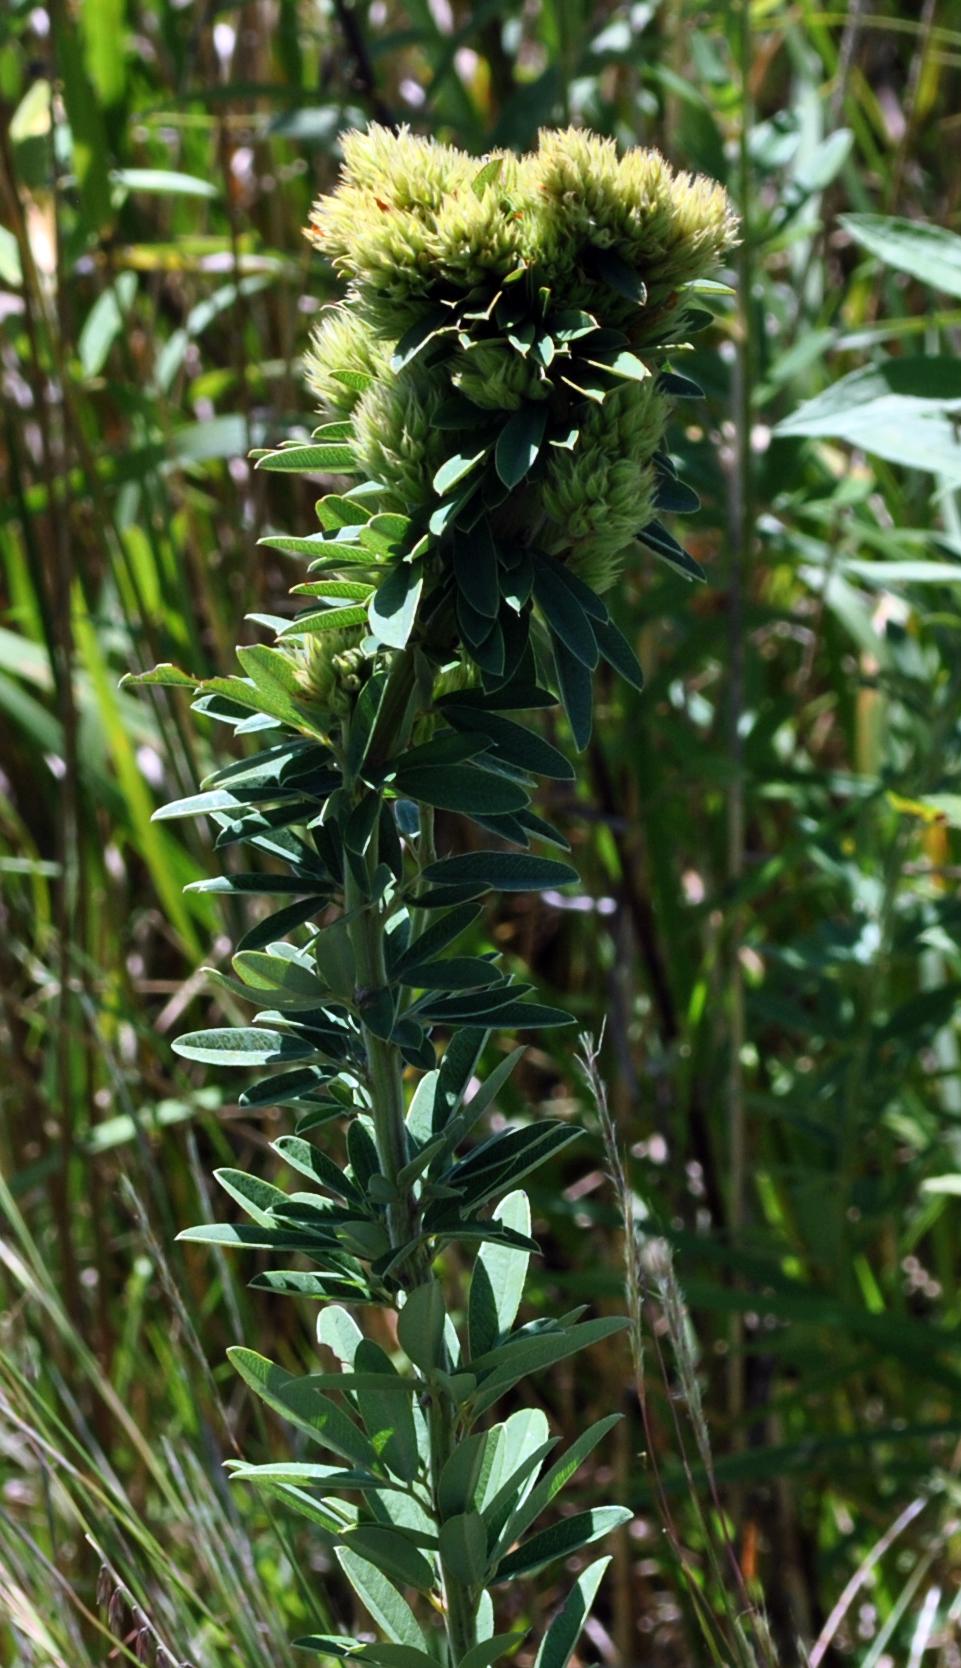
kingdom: Plantae
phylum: Tracheophyta
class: Magnoliopsida
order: Fabales
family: Fabaceae
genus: Lespedeza
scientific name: Lespedeza capitata
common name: Dusty clover
